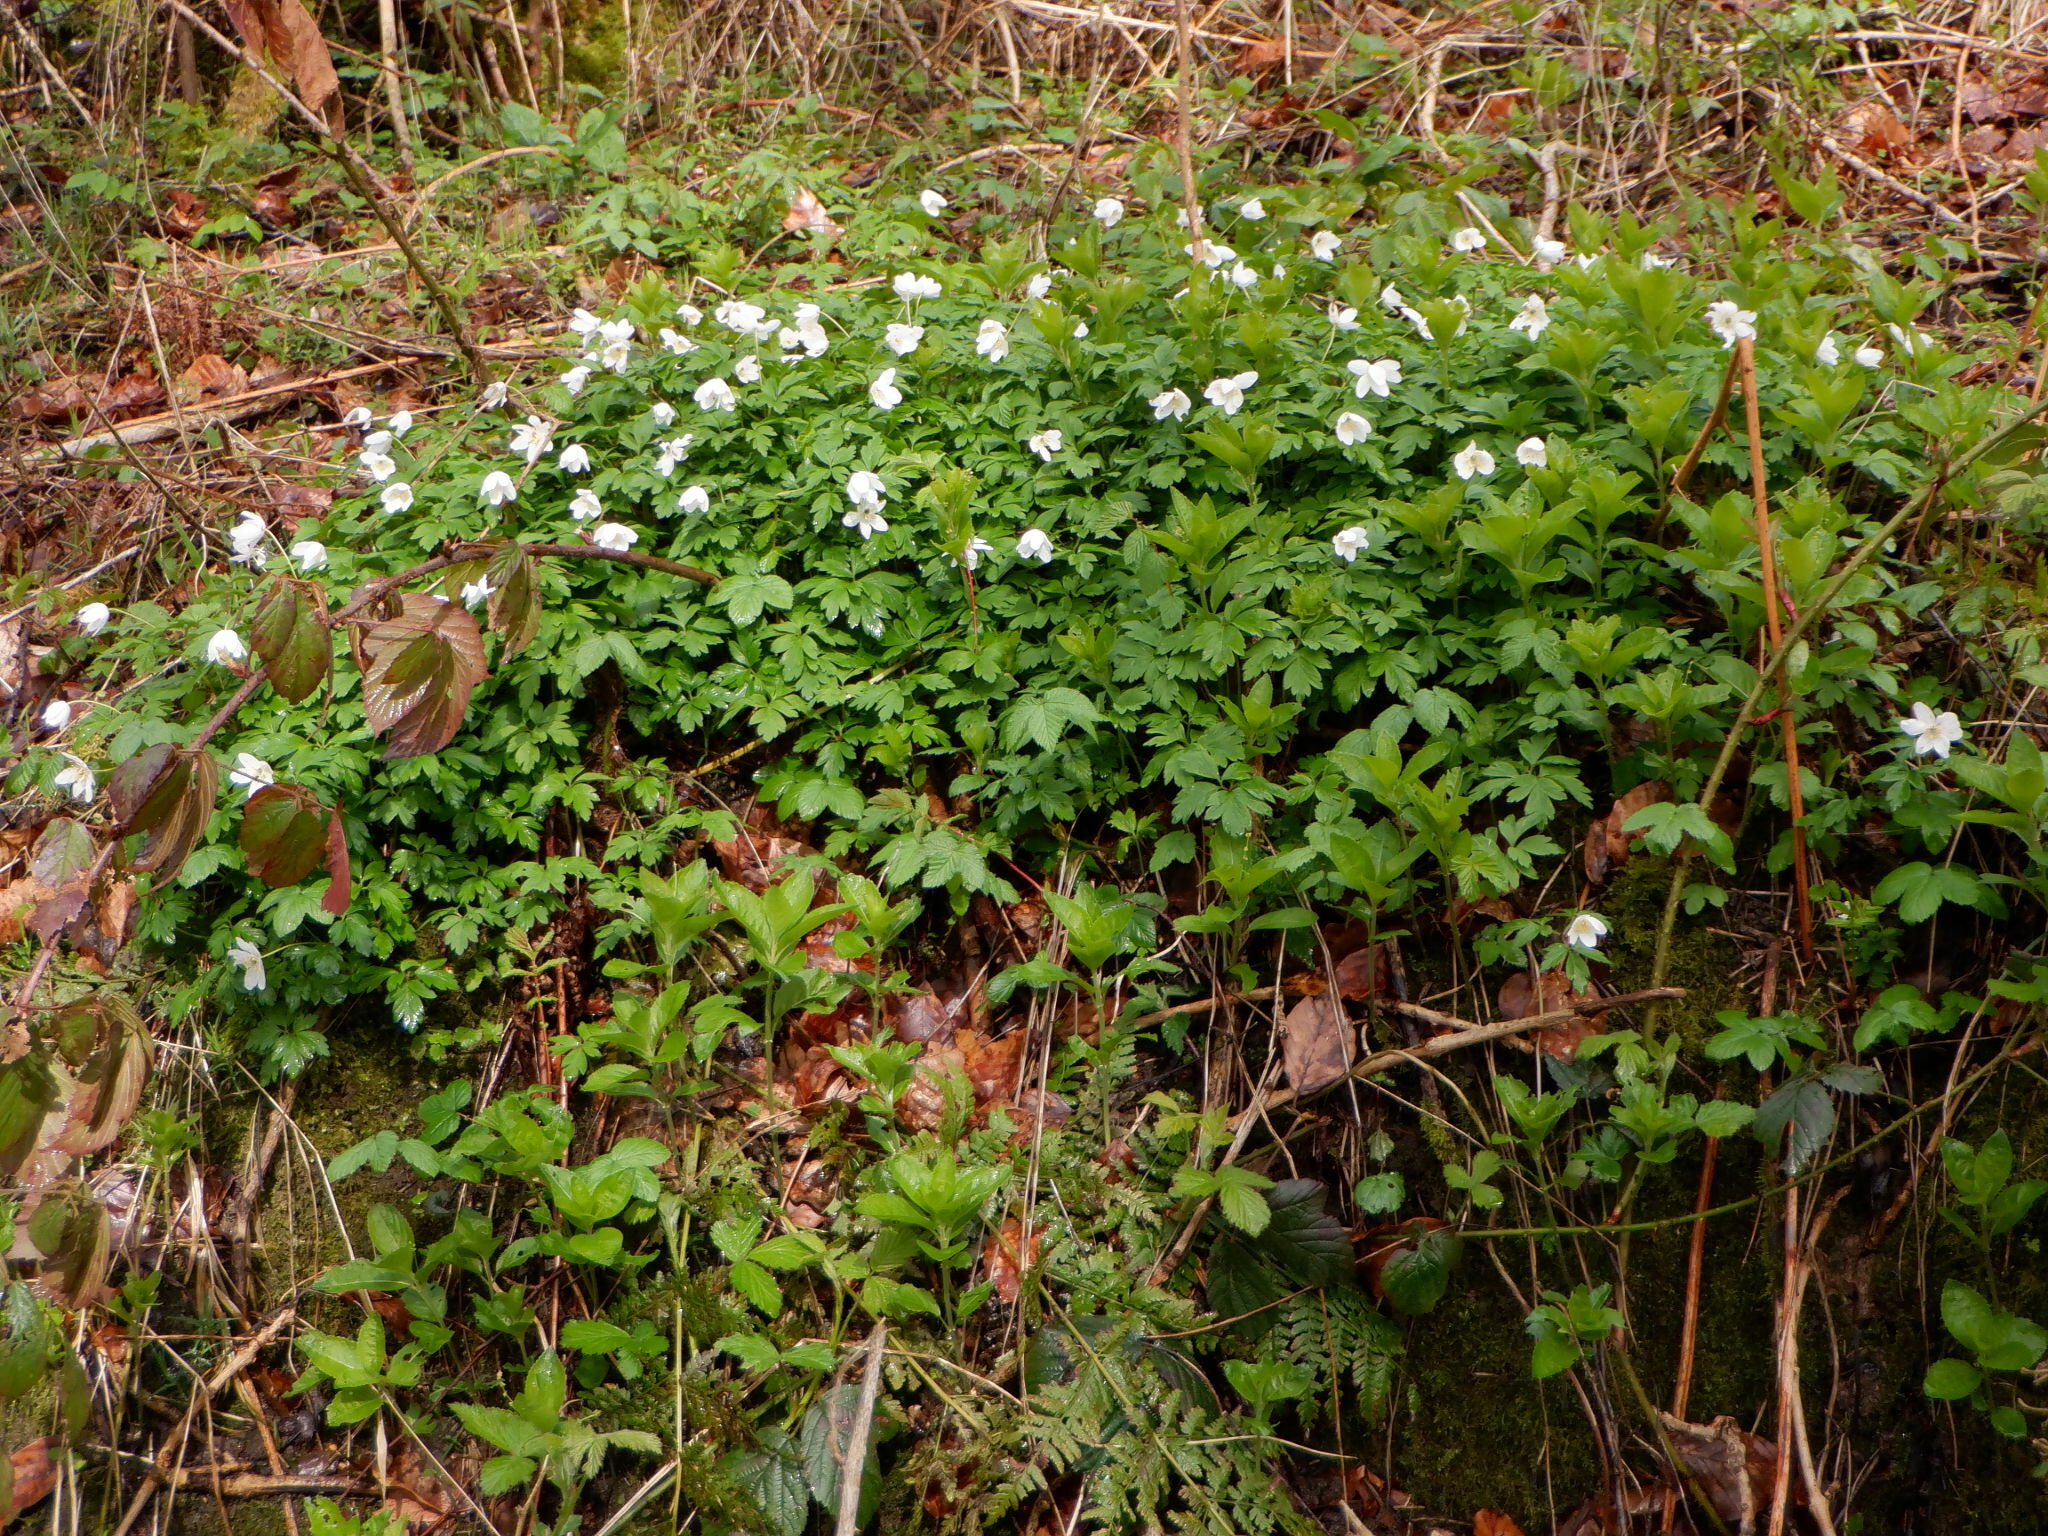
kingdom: Plantae
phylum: Tracheophyta
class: Magnoliopsida
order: Ranunculales
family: Ranunculaceae
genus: Anemone
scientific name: Anemone nemorosa
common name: Wood anemone
